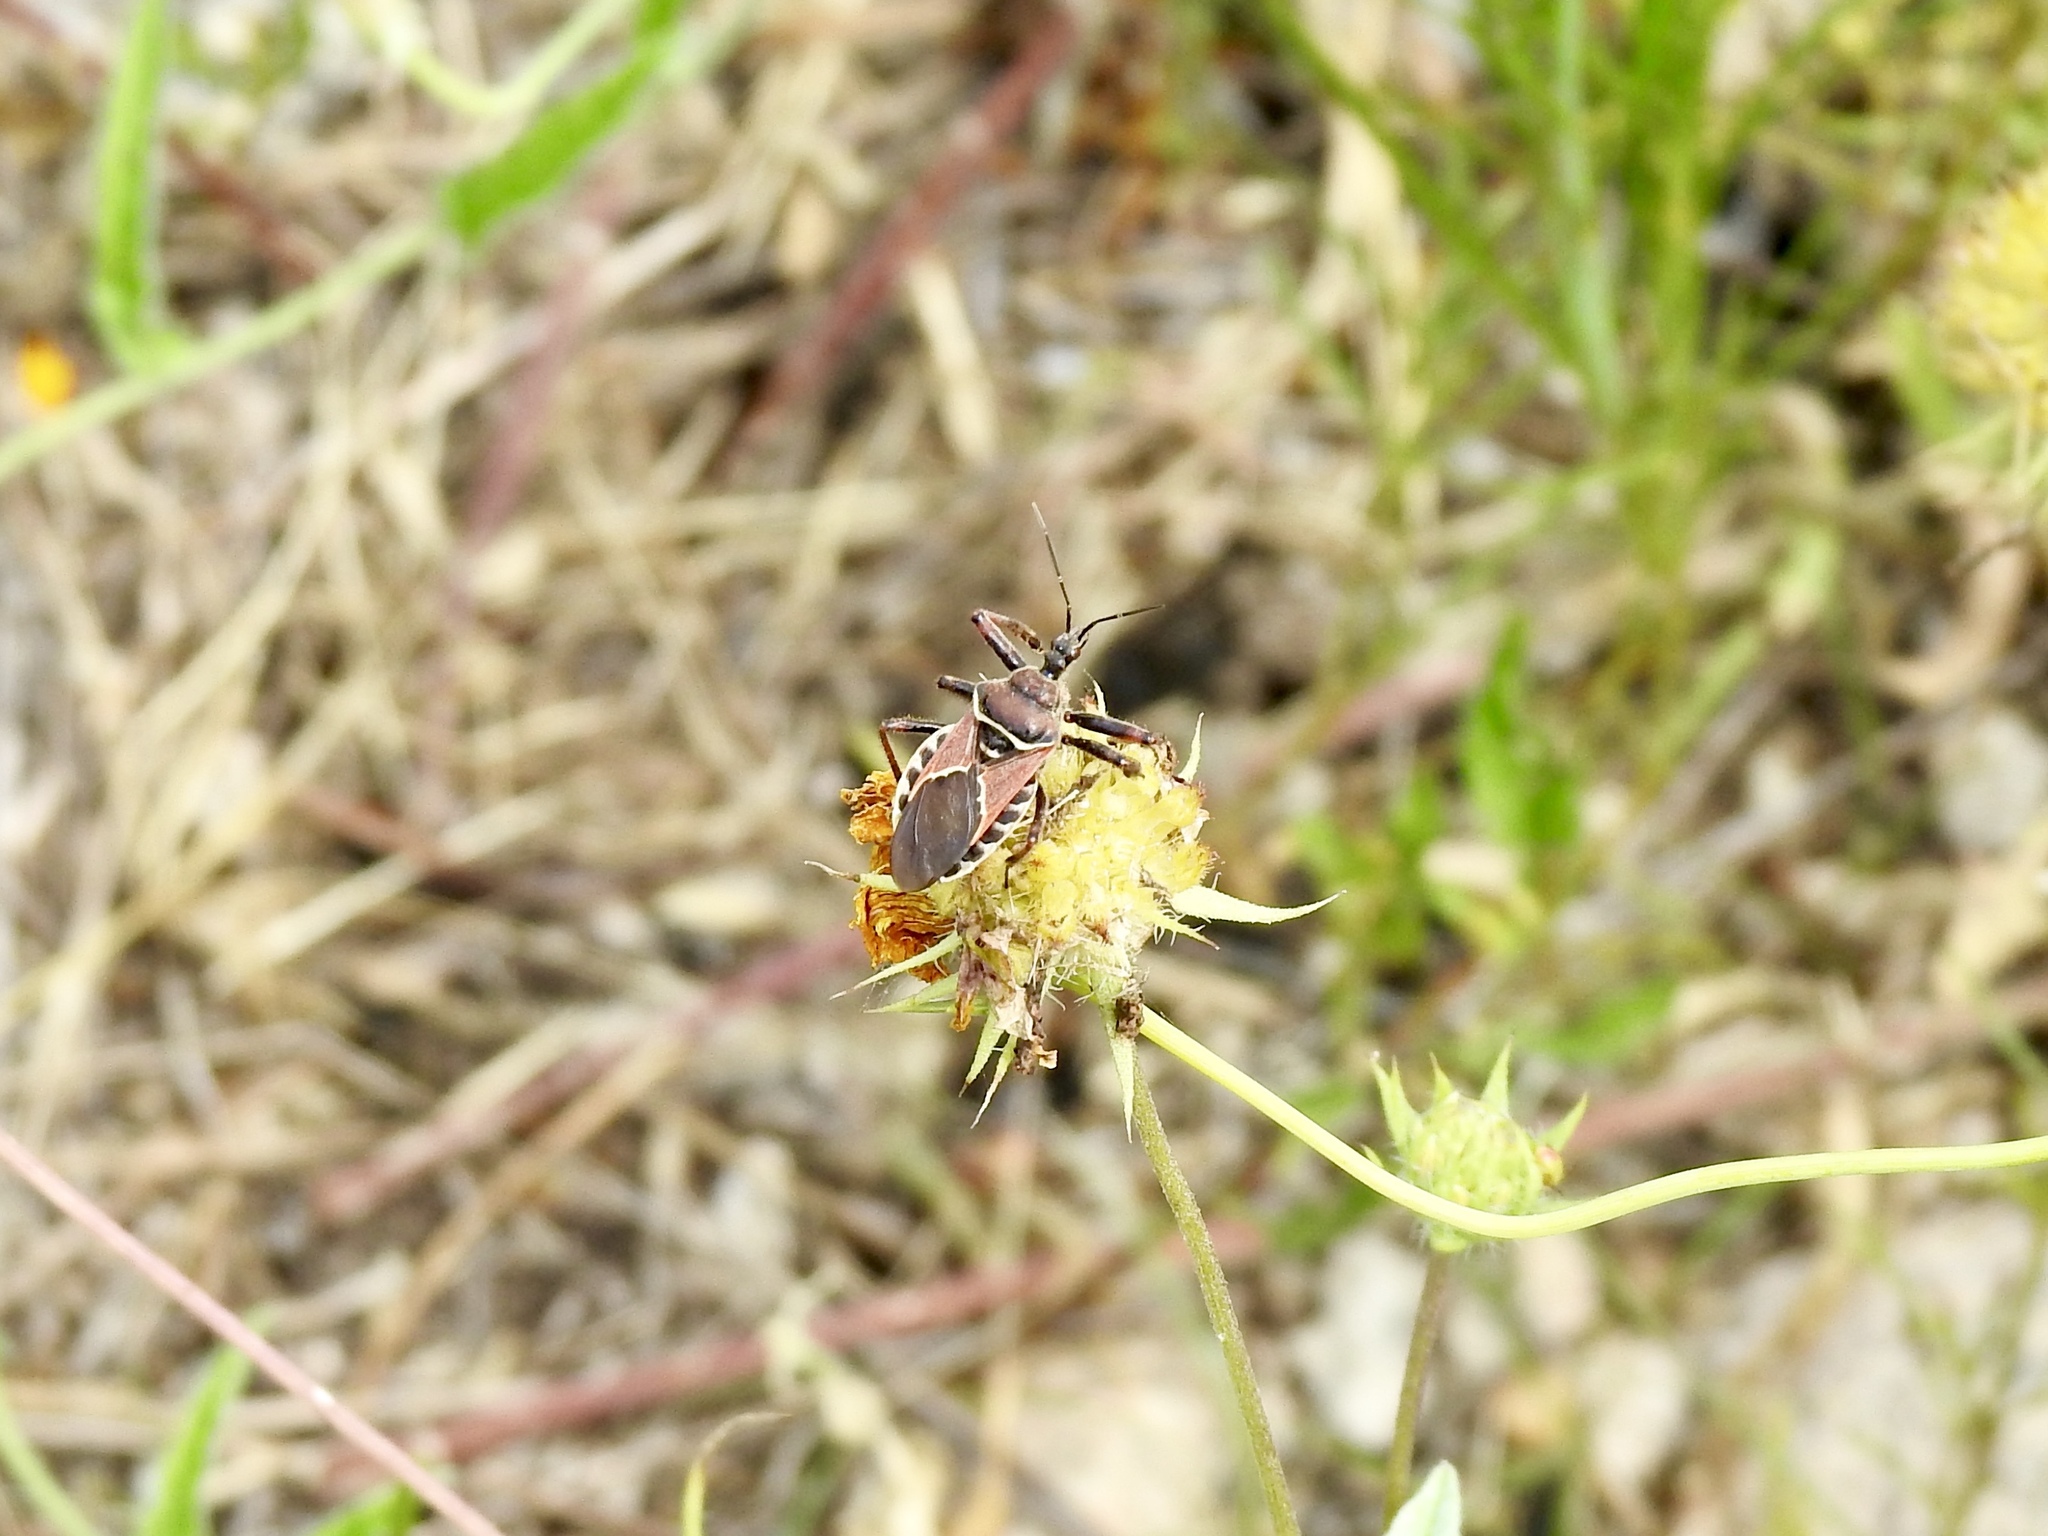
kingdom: Animalia
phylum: Arthropoda
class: Insecta
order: Hemiptera
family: Reduviidae
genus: Apiomerus
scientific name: Apiomerus spissipes
